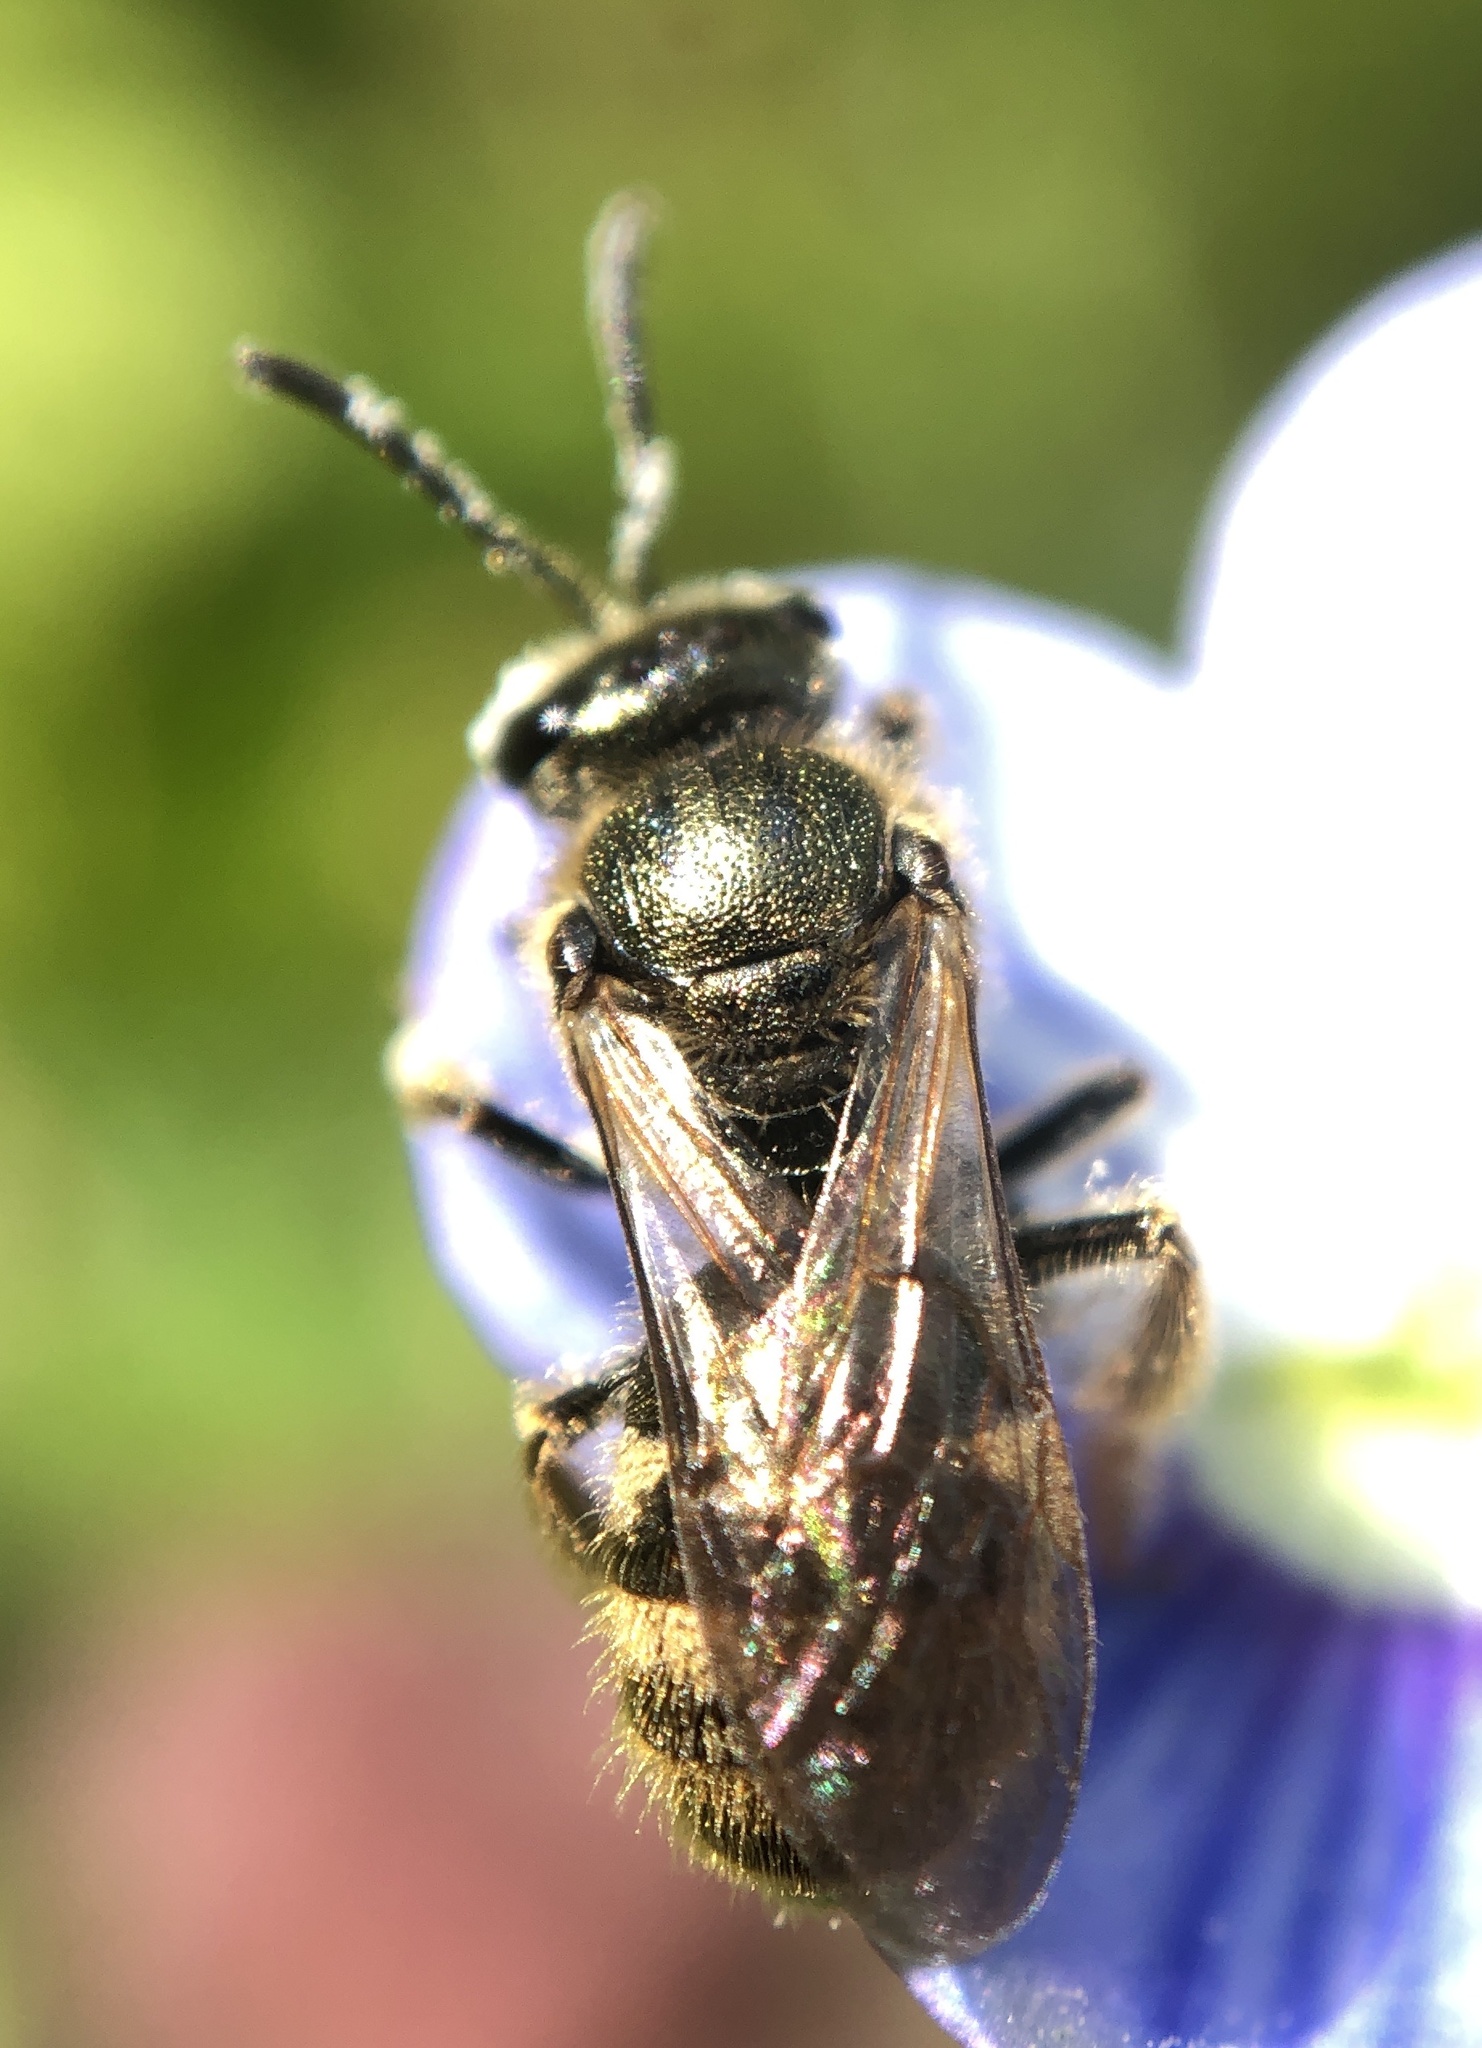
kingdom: Animalia
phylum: Arthropoda
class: Insecta
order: Hymenoptera
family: Halictidae
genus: Lasioglossum
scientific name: Lasioglossum bruneri
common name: Bruner's sweat bee
